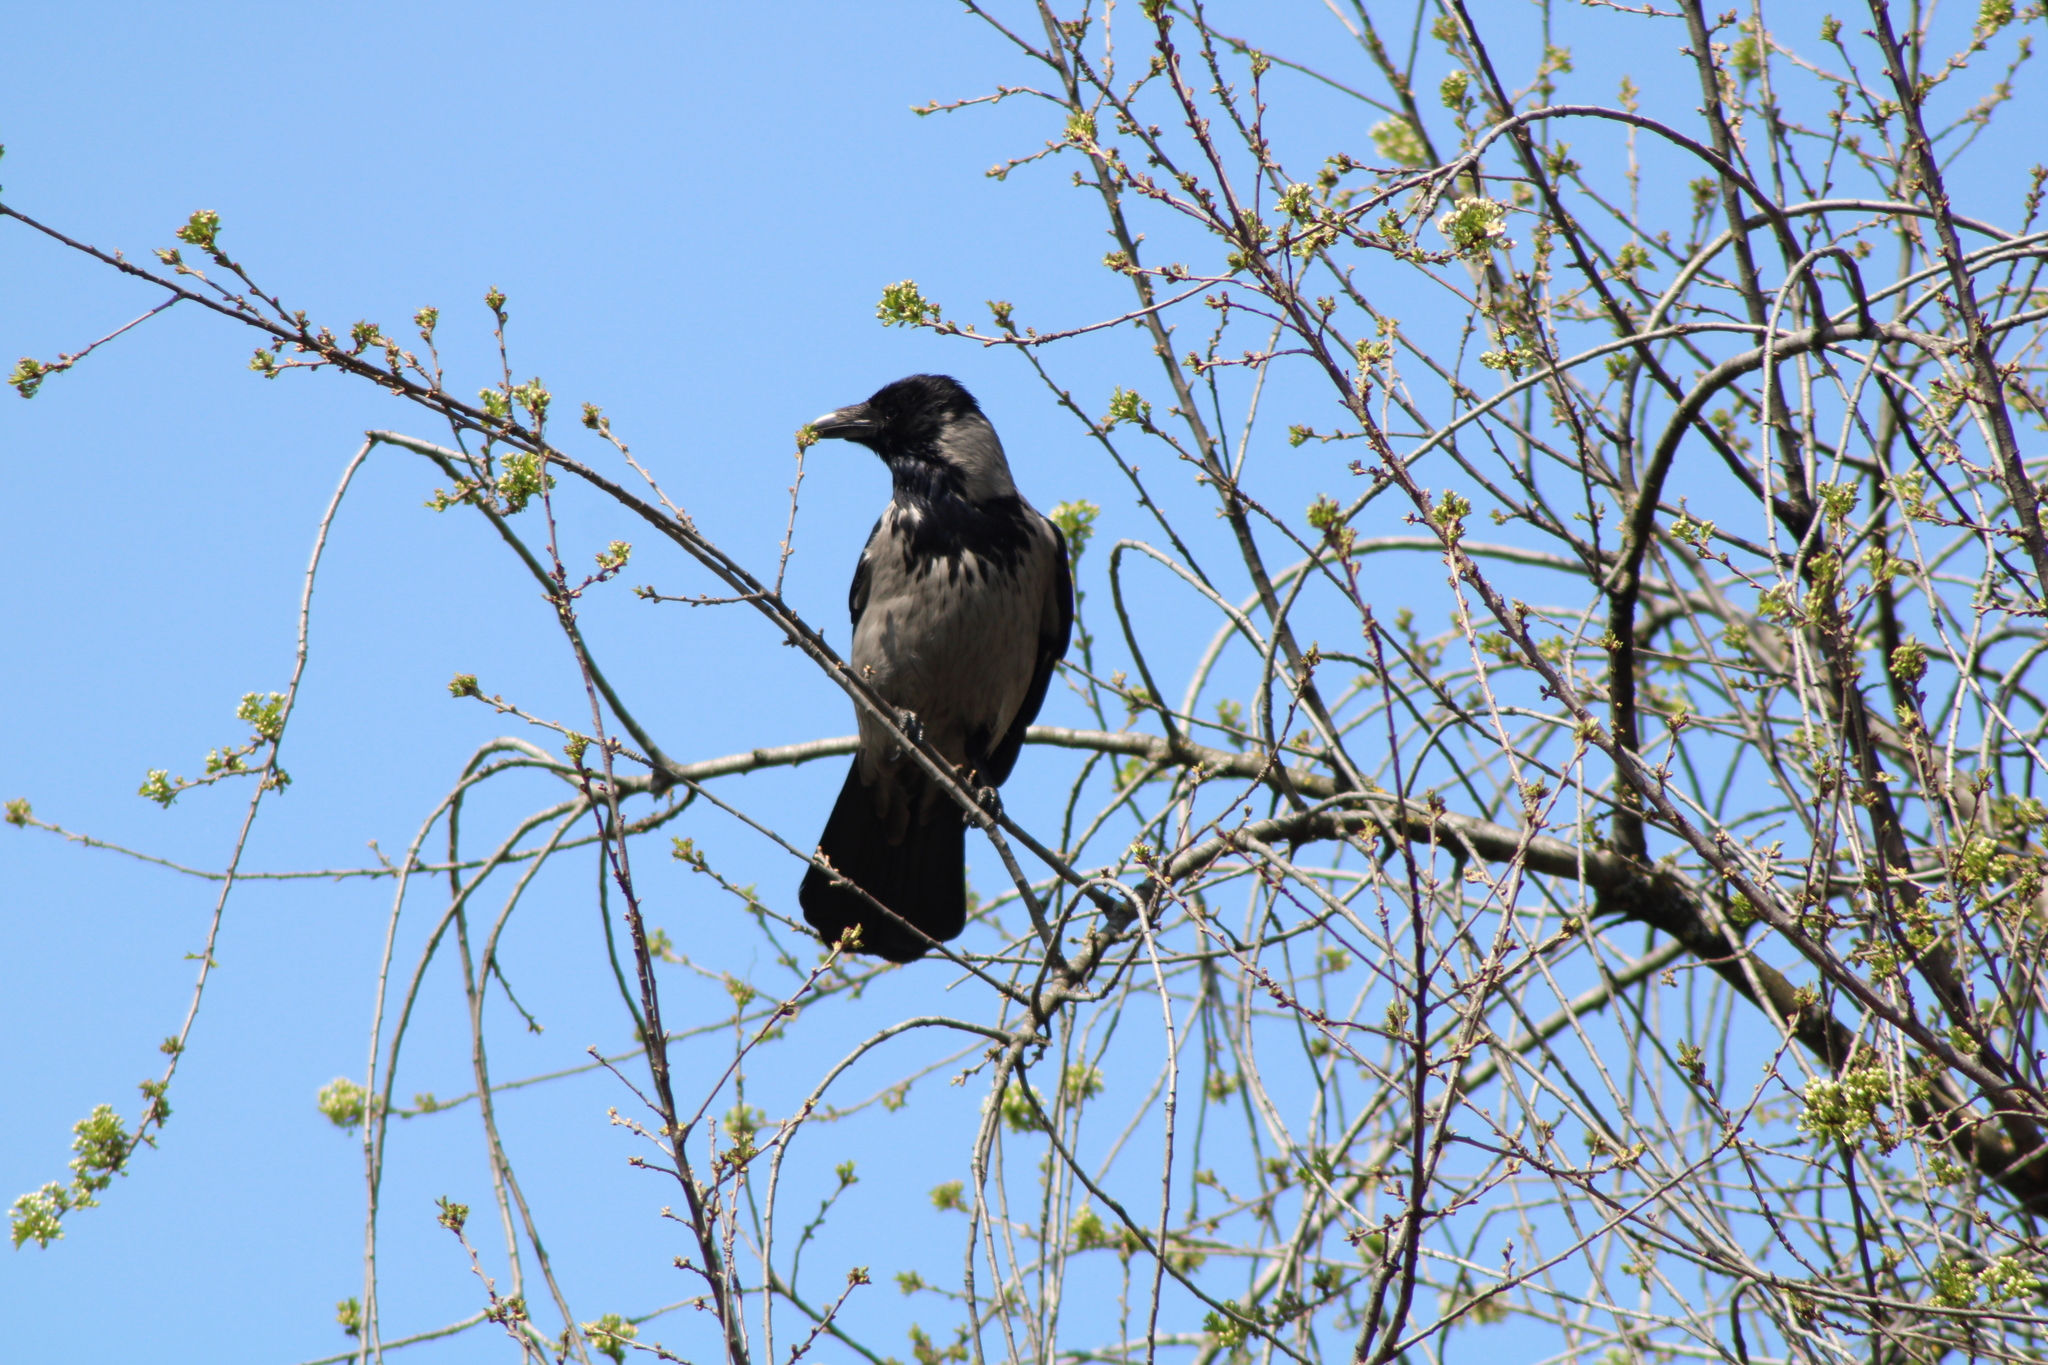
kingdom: Animalia
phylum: Chordata
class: Aves
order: Passeriformes
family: Corvidae
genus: Corvus
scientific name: Corvus cornix
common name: Hooded crow
